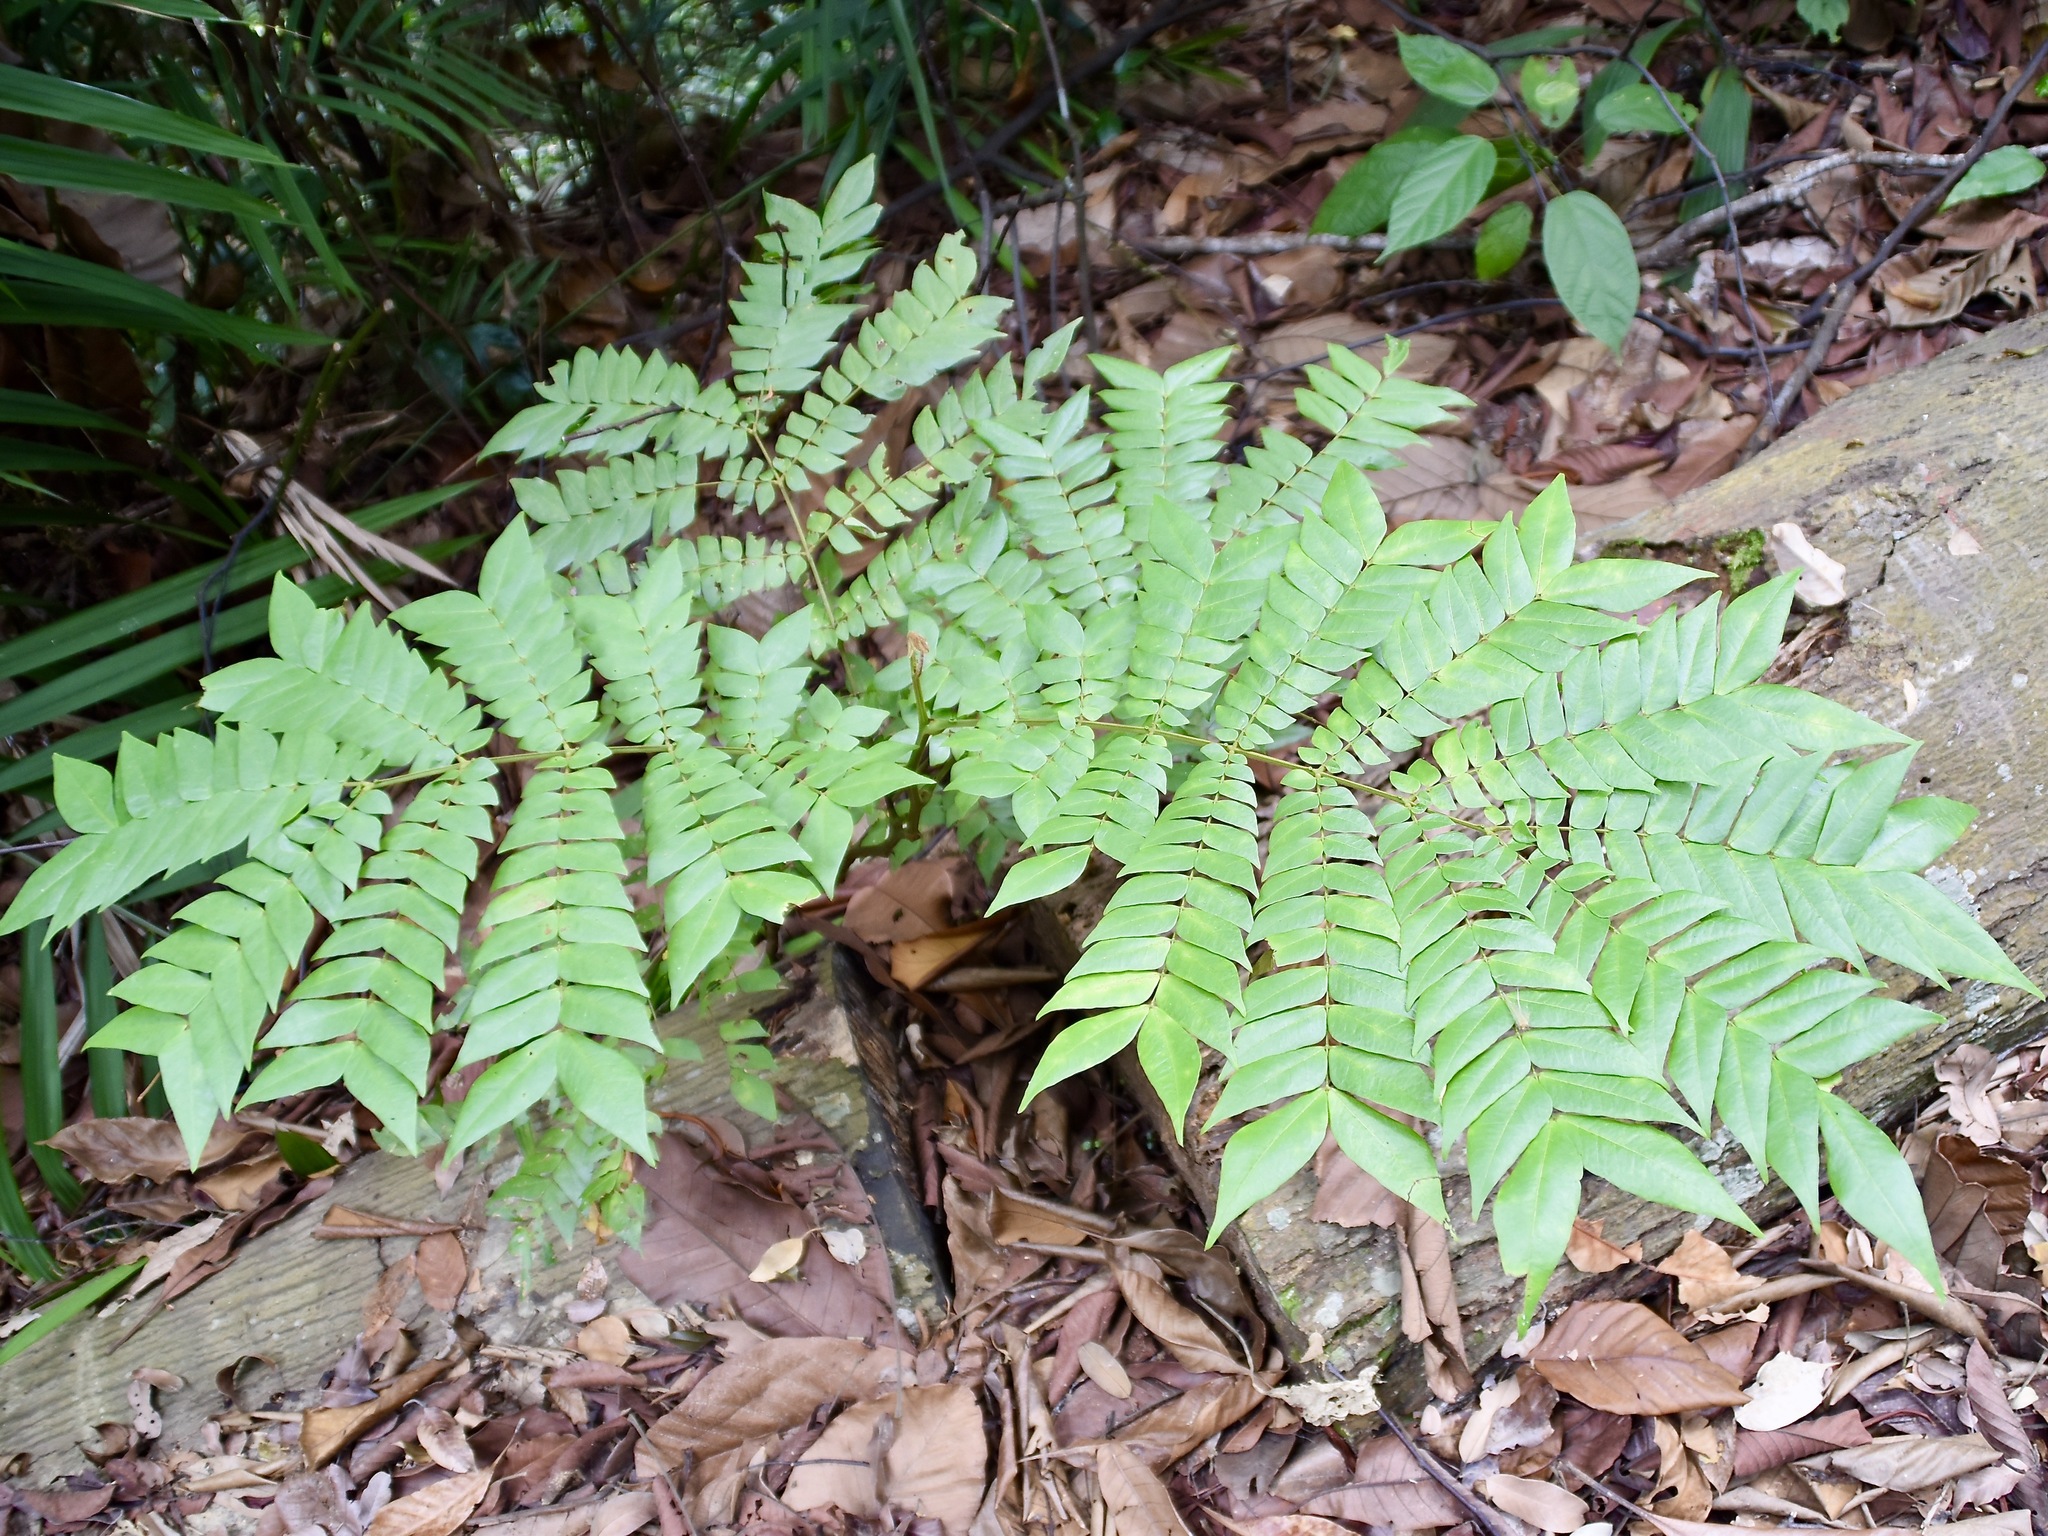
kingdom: Plantae
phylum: Tracheophyta
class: Magnoliopsida
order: Fabales
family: Fabaceae
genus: Archidendron
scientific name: Archidendron clypearia
